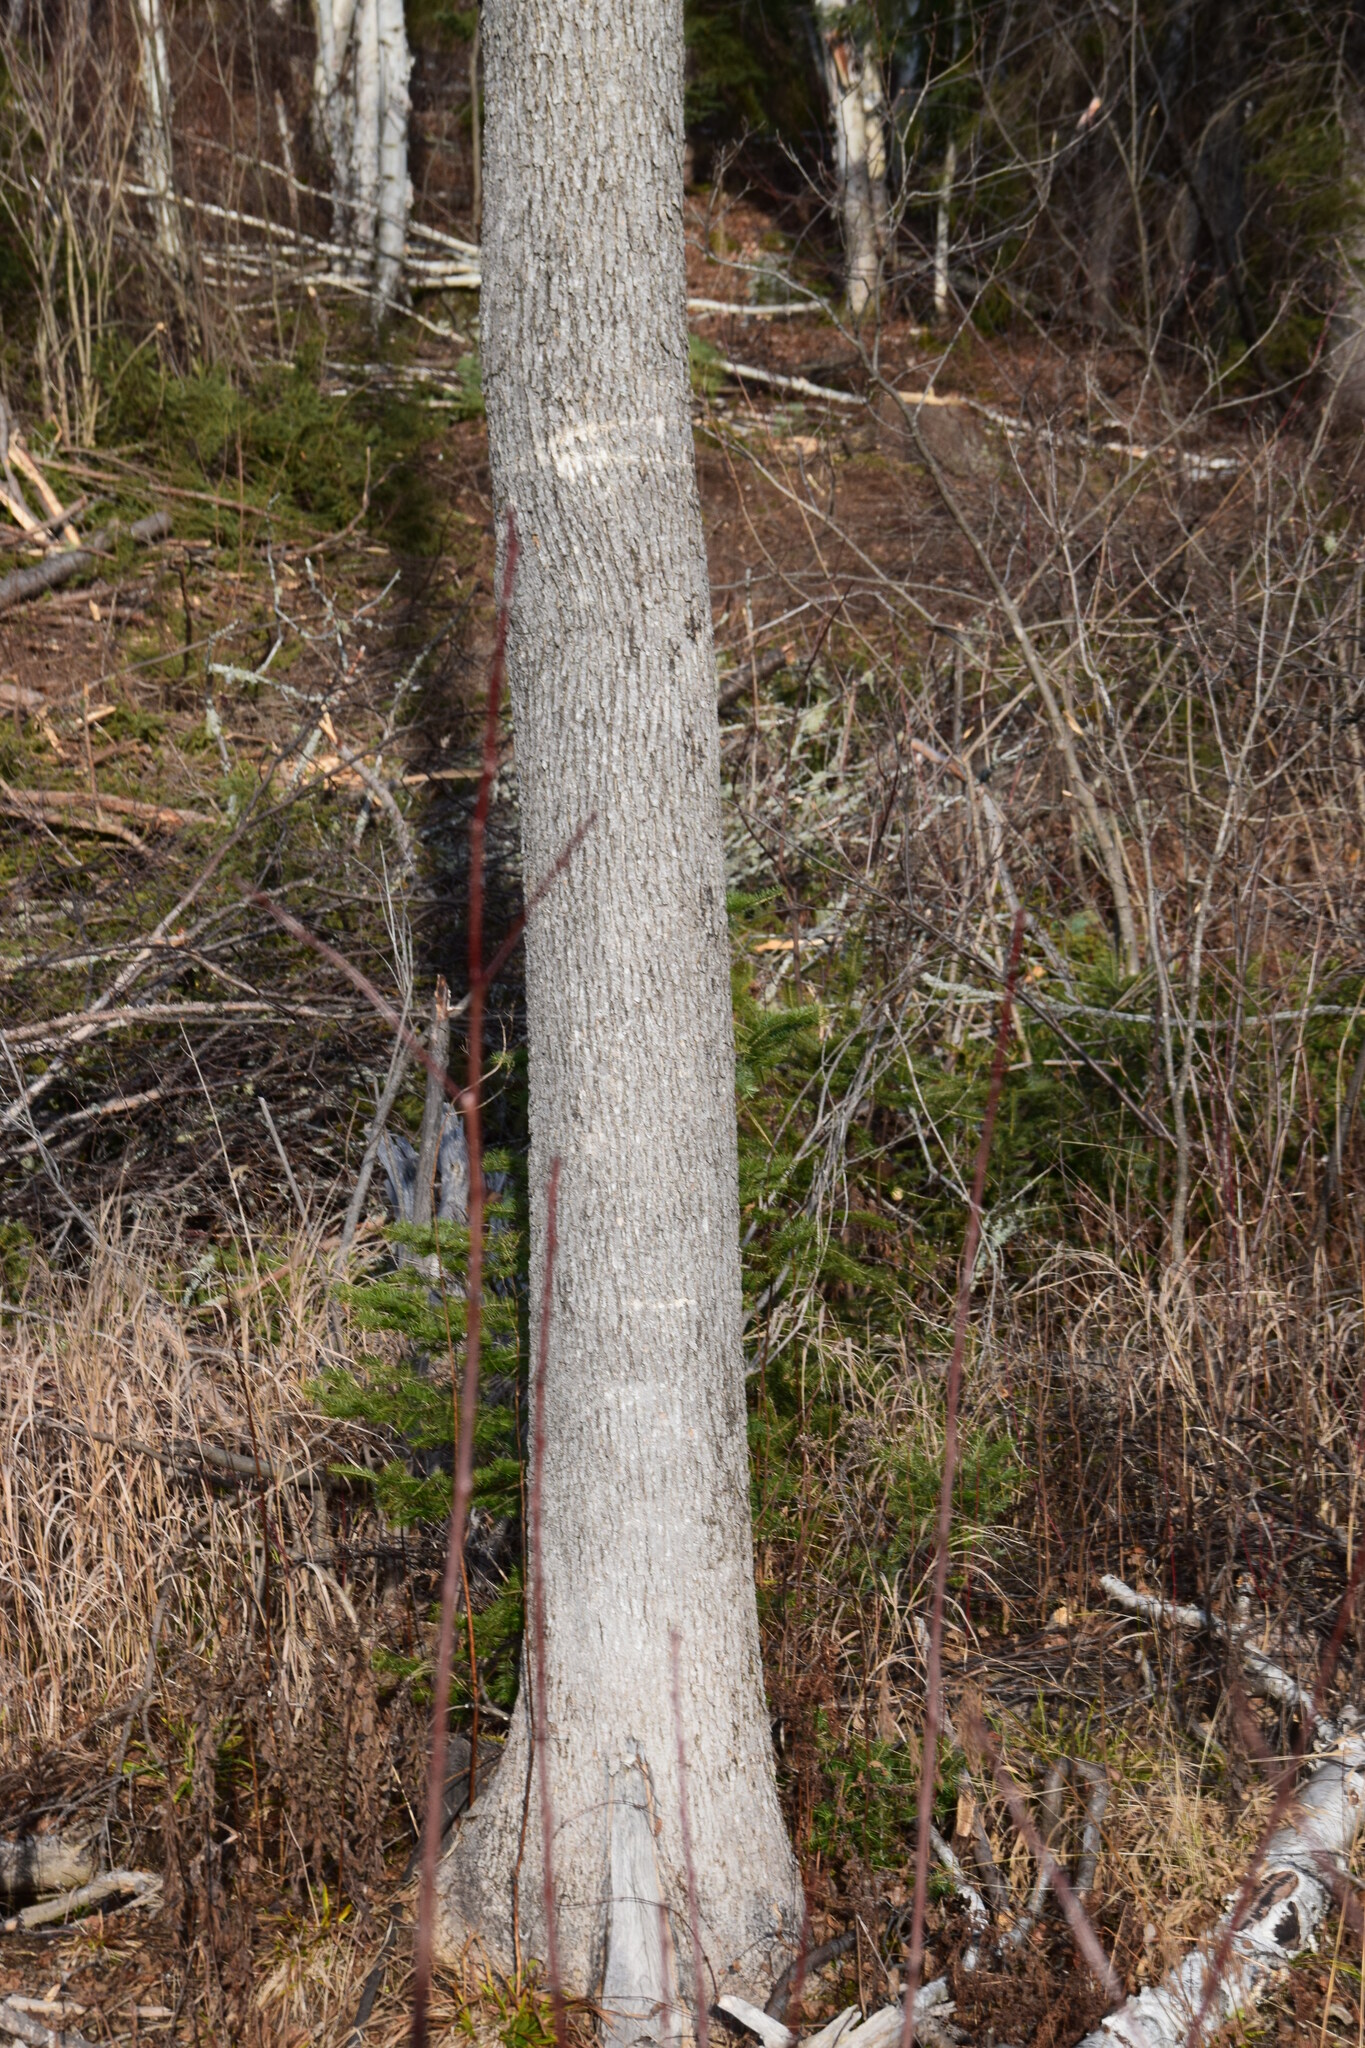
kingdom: Plantae
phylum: Tracheophyta
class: Magnoliopsida
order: Lamiales
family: Oleaceae
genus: Fraxinus
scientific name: Fraxinus nigra
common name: Black ash
